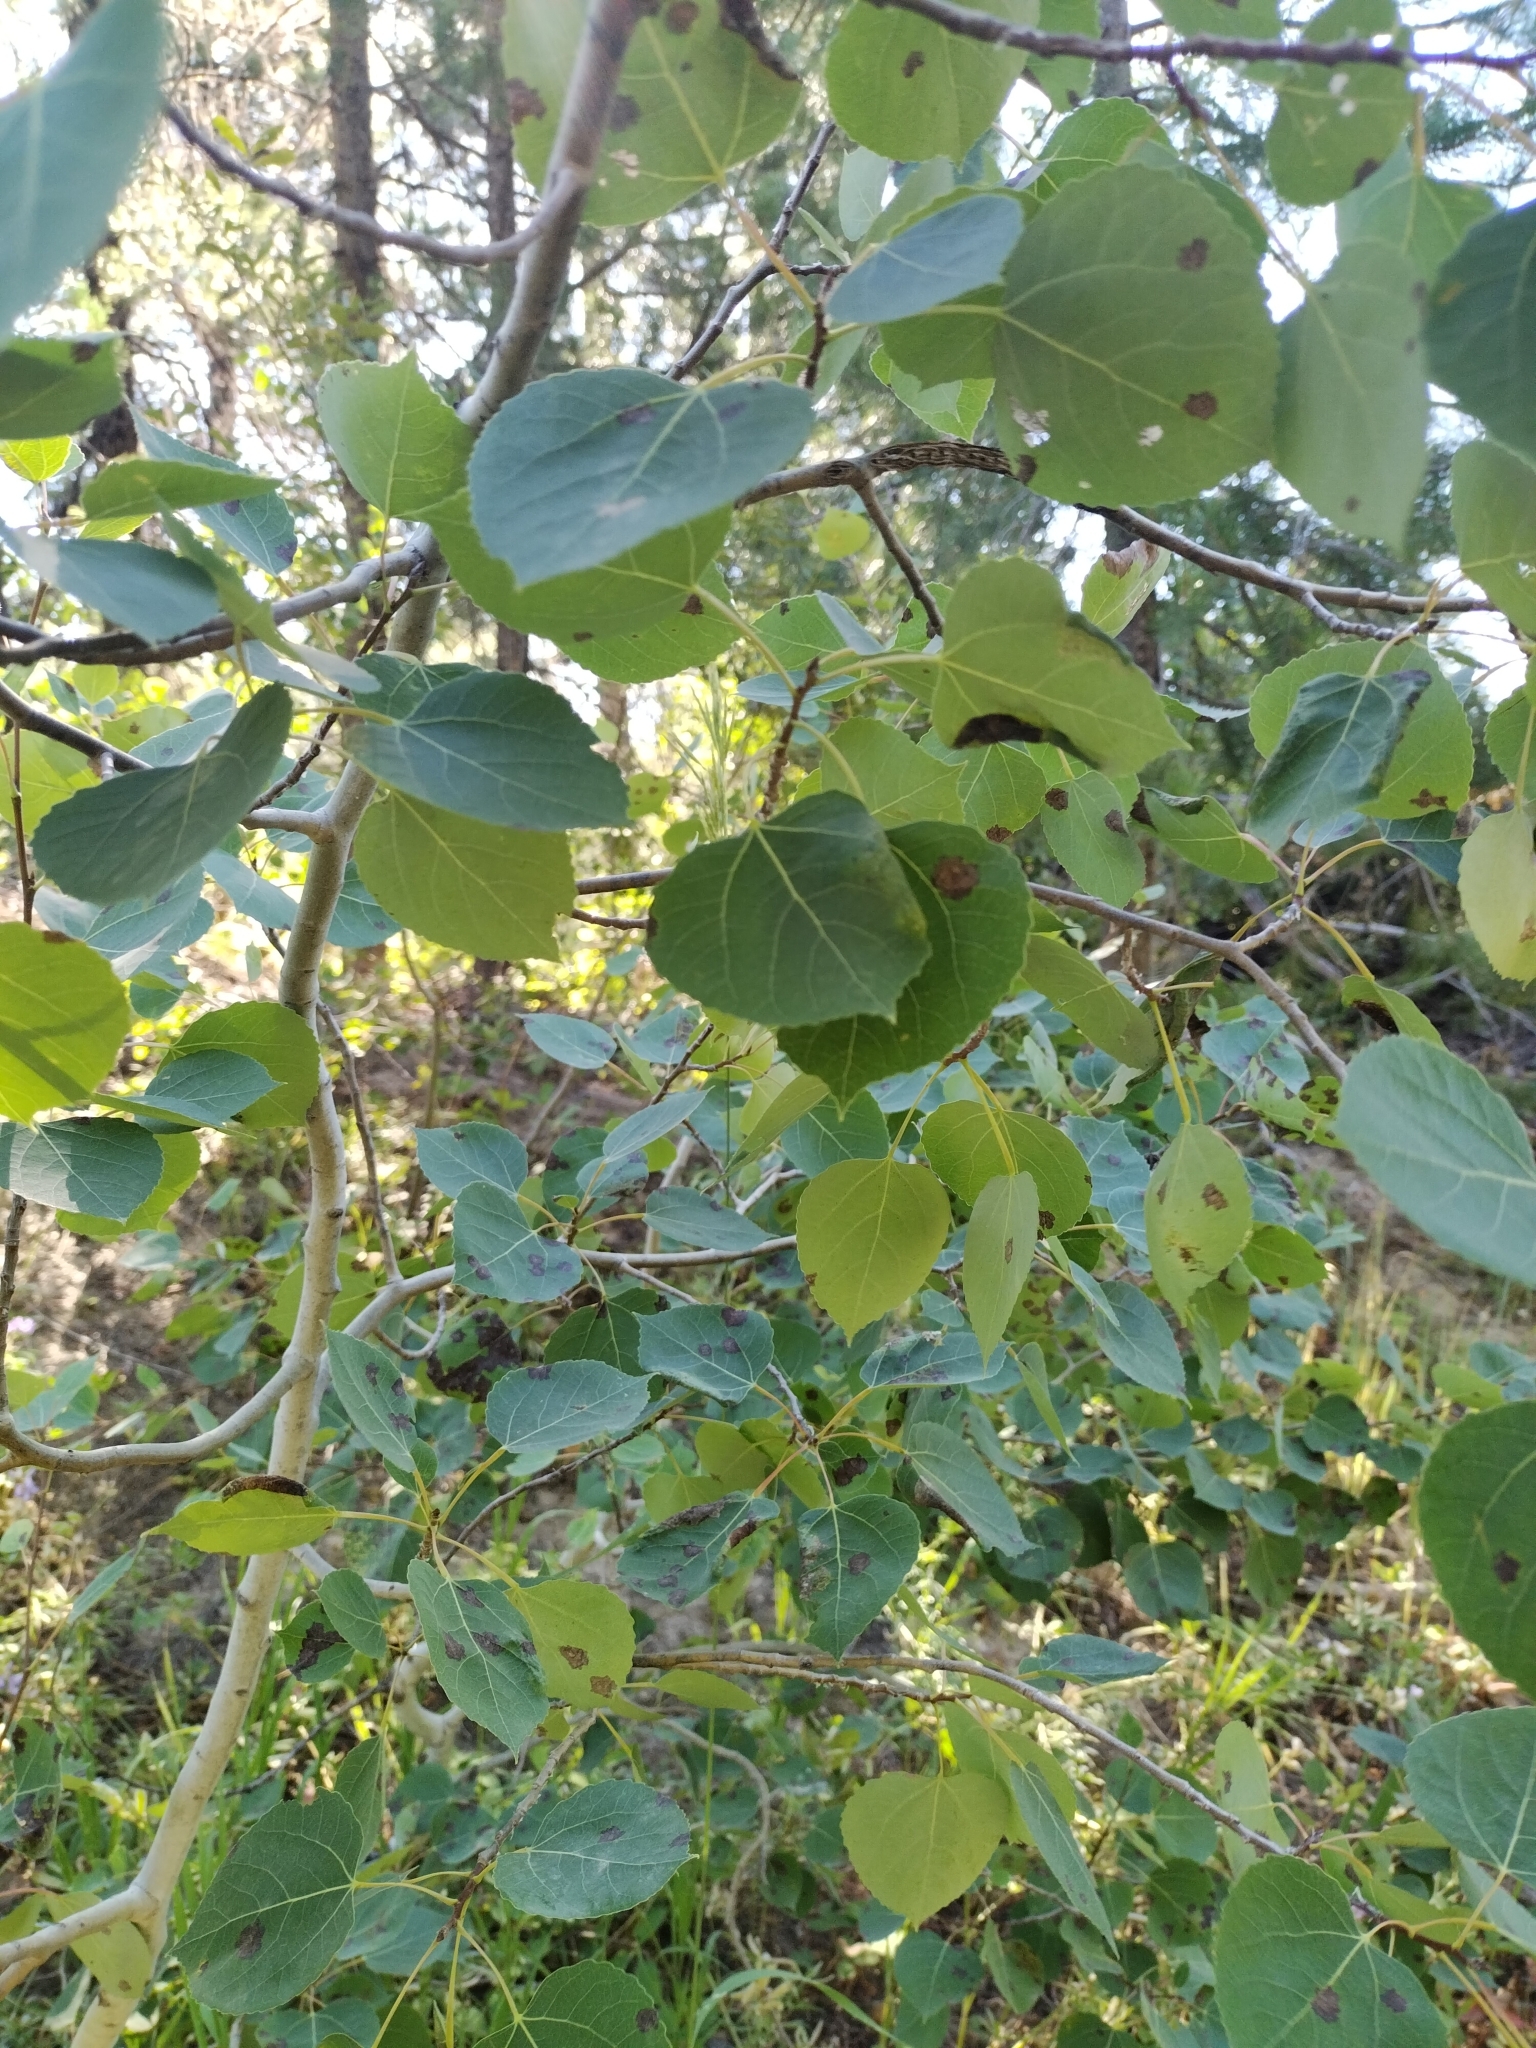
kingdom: Plantae
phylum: Tracheophyta
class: Magnoliopsida
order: Malpighiales
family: Salicaceae
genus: Populus
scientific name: Populus tremuloides
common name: Quaking aspen
